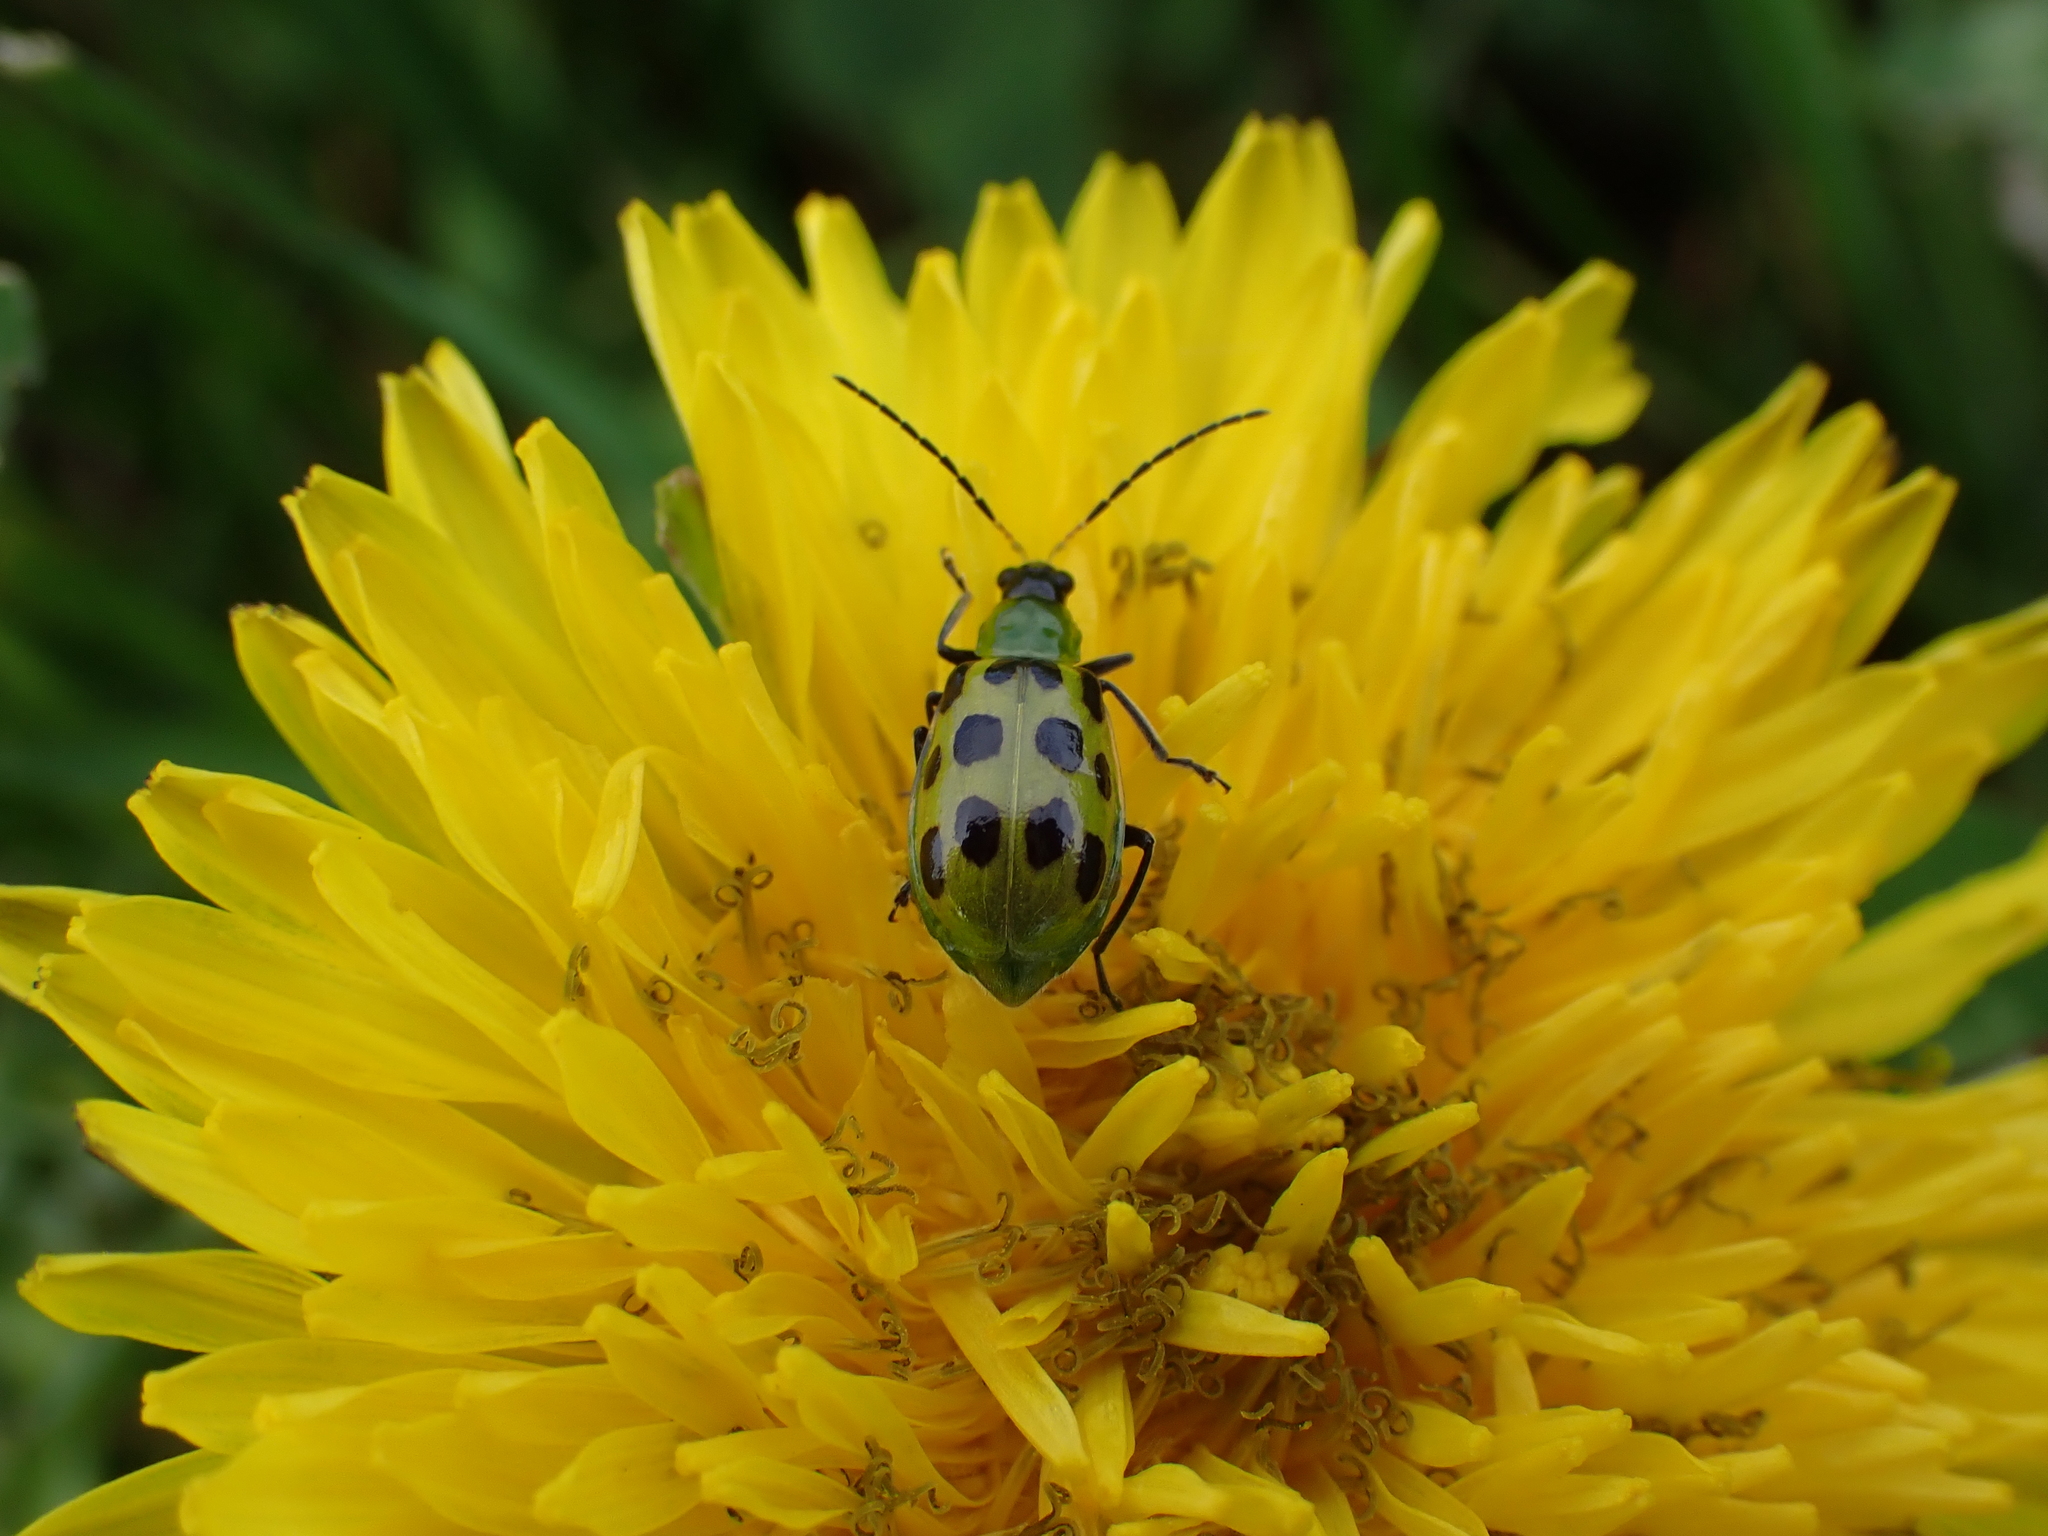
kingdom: Animalia
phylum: Arthropoda
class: Insecta
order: Coleoptera
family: Chrysomelidae
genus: Diabrotica
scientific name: Diabrotica undecimpunctata
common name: Spotted cucumber beetle
